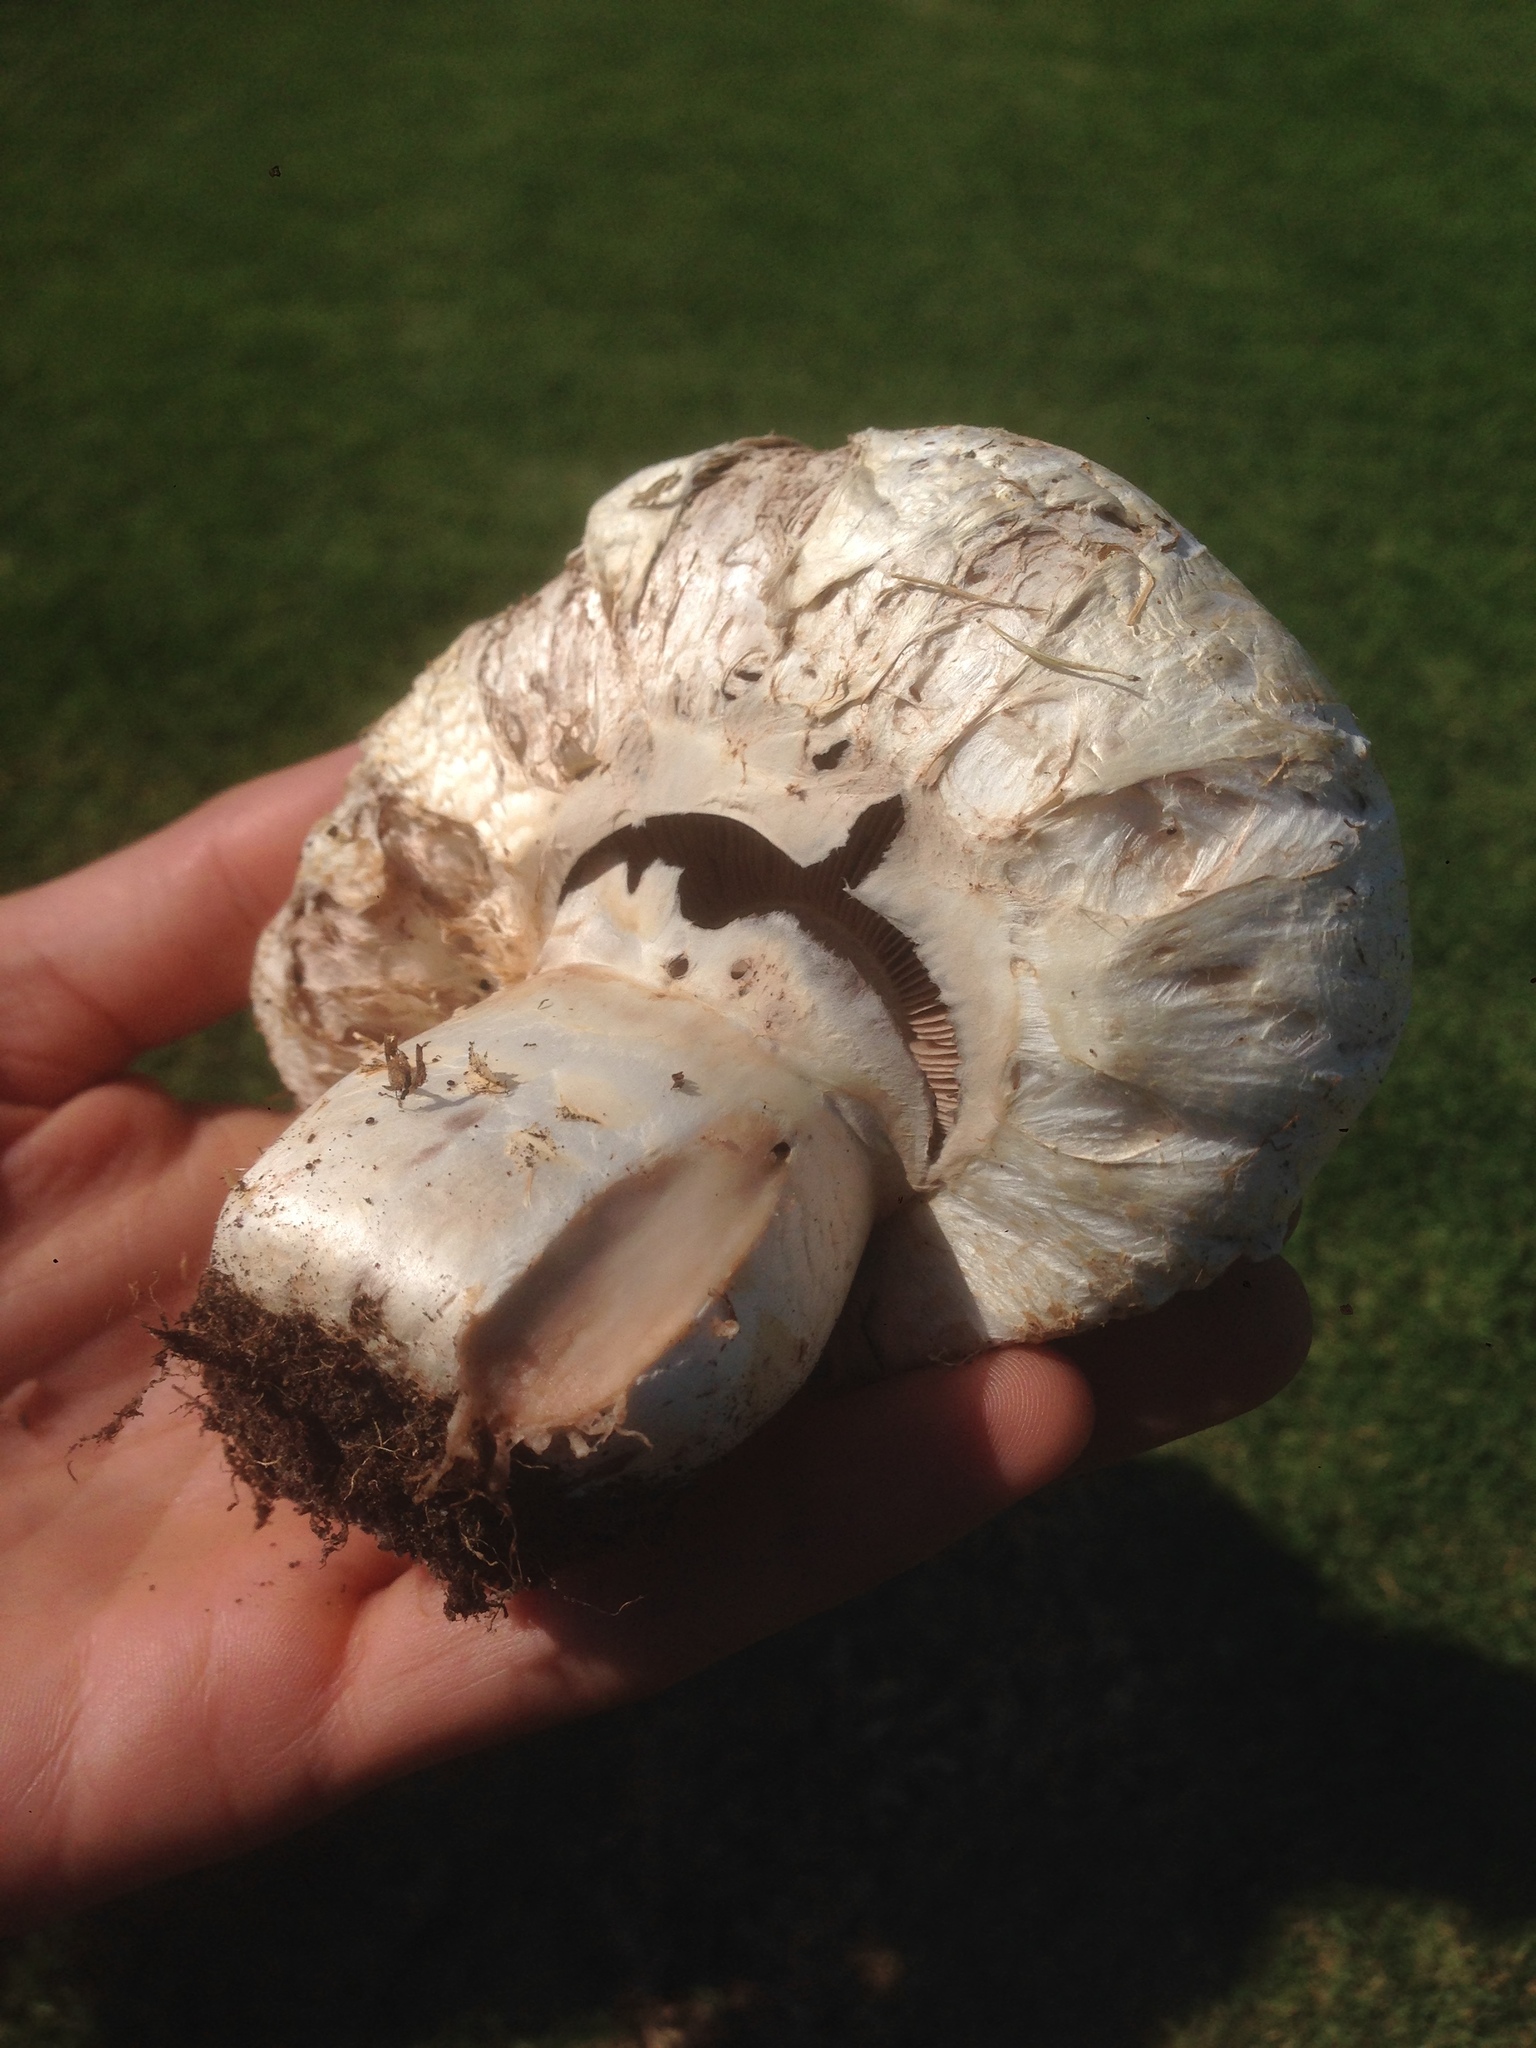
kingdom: Fungi
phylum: Basidiomycota
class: Agaricomycetes
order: Agaricales
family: Agaricaceae
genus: Agaricus
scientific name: Agaricus bernardii
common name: Salty mushroom
